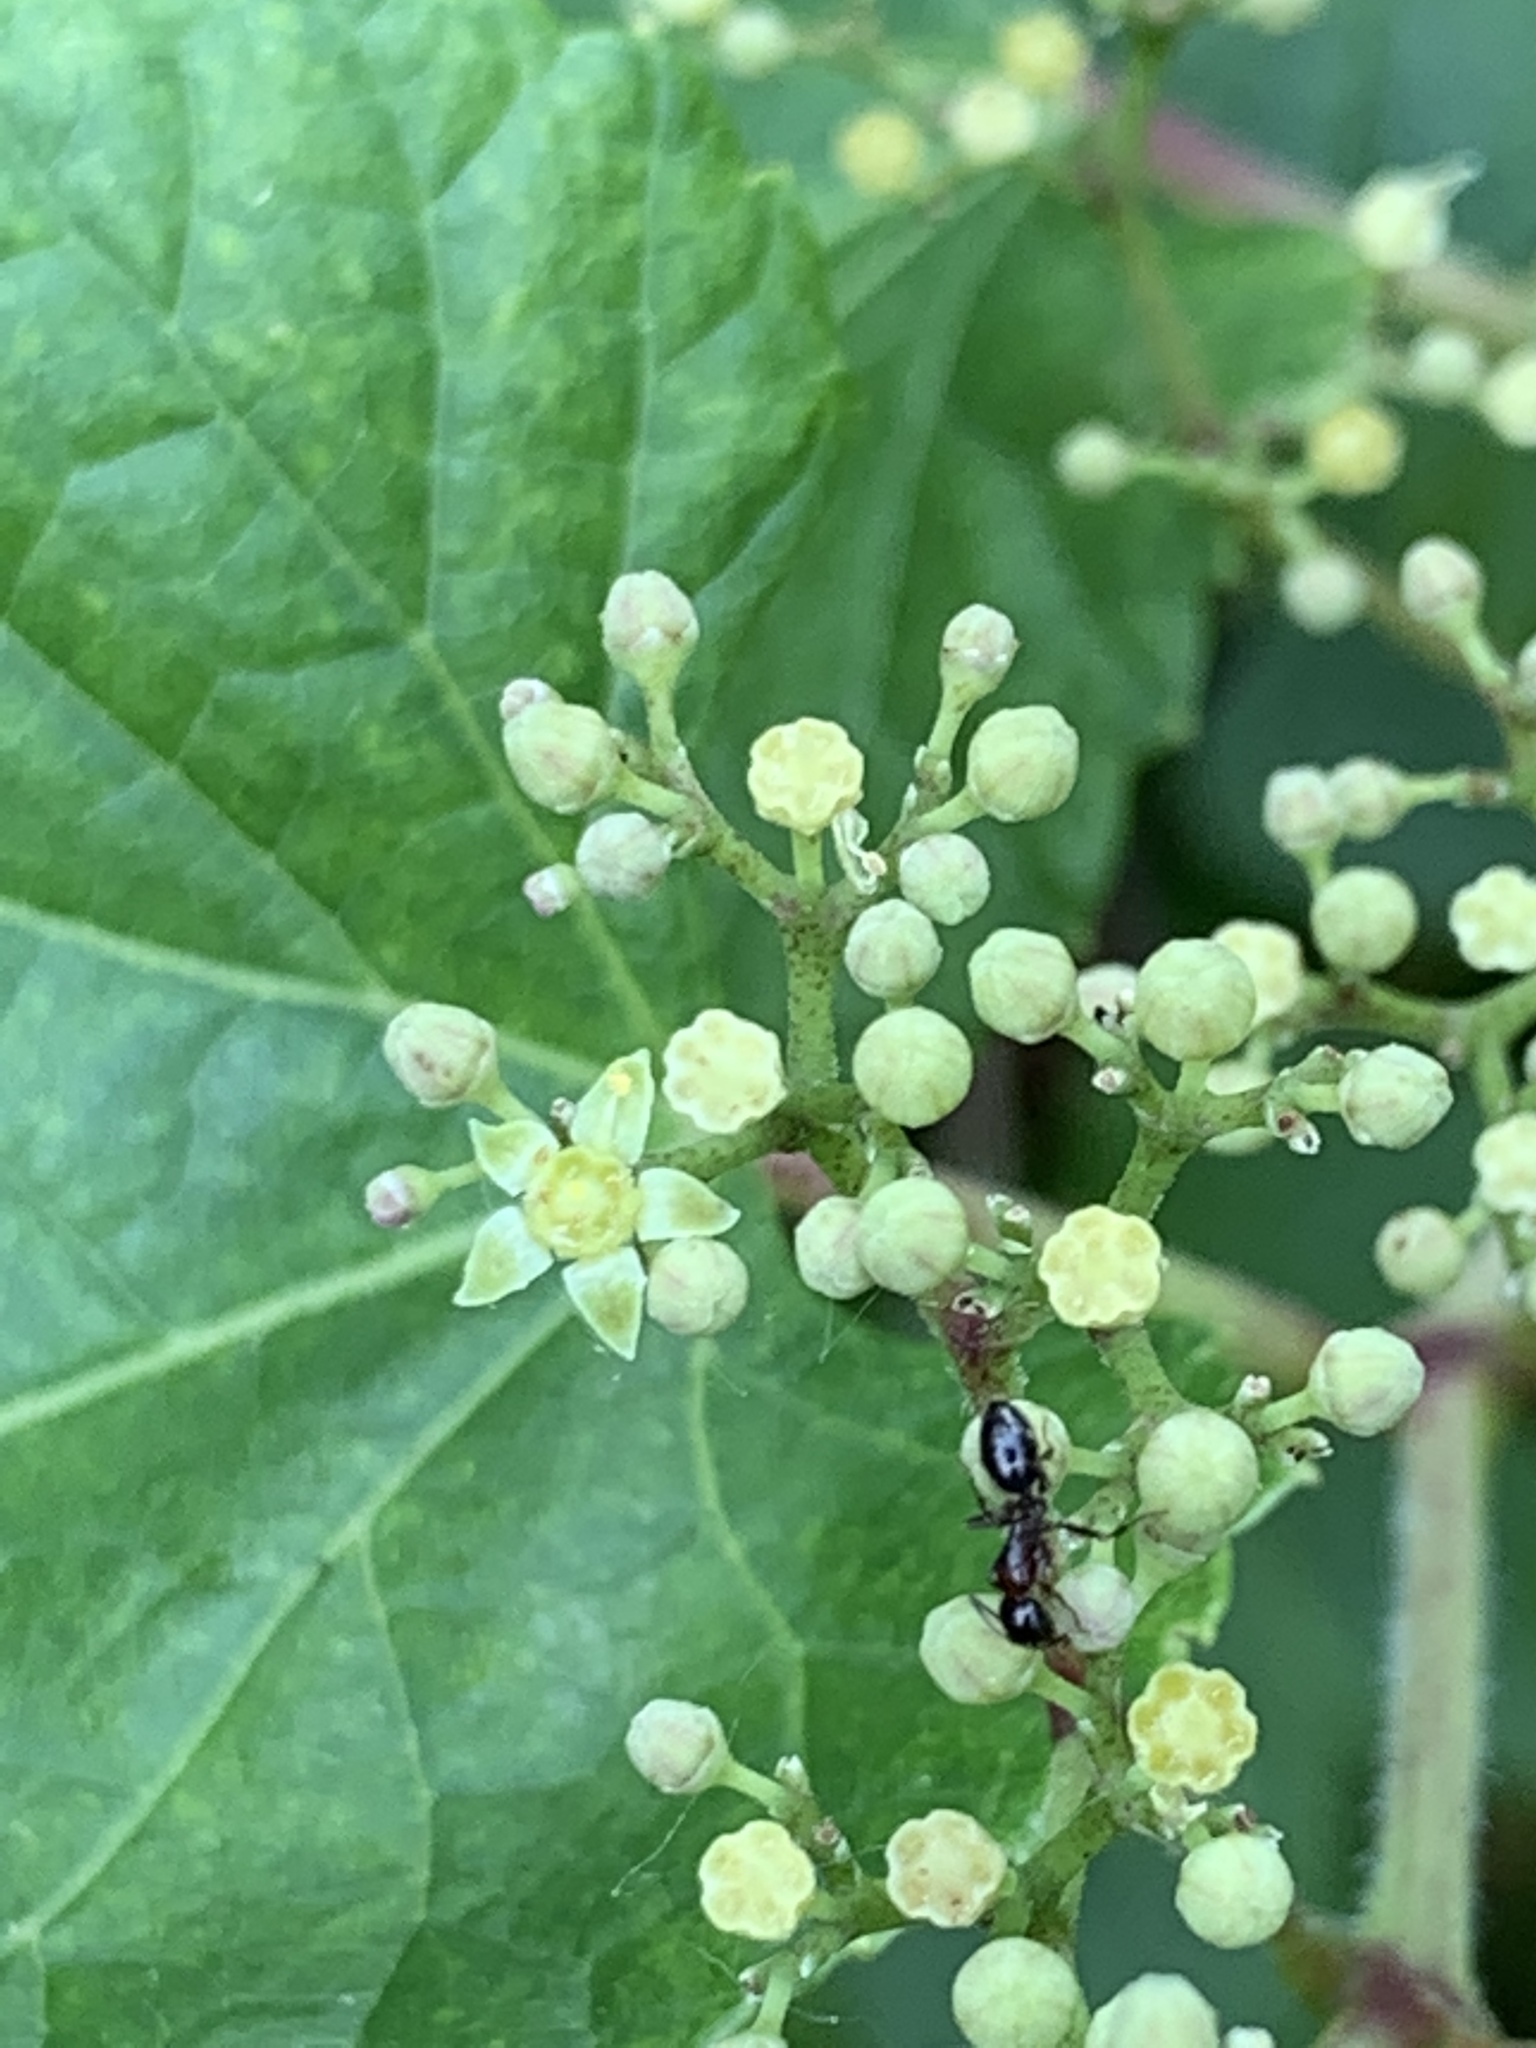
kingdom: Plantae
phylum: Tracheophyta
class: Magnoliopsida
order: Vitales
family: Vitaceae
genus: Ampelopsis
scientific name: Ampelopsis glandulosa
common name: Amur peppervine
